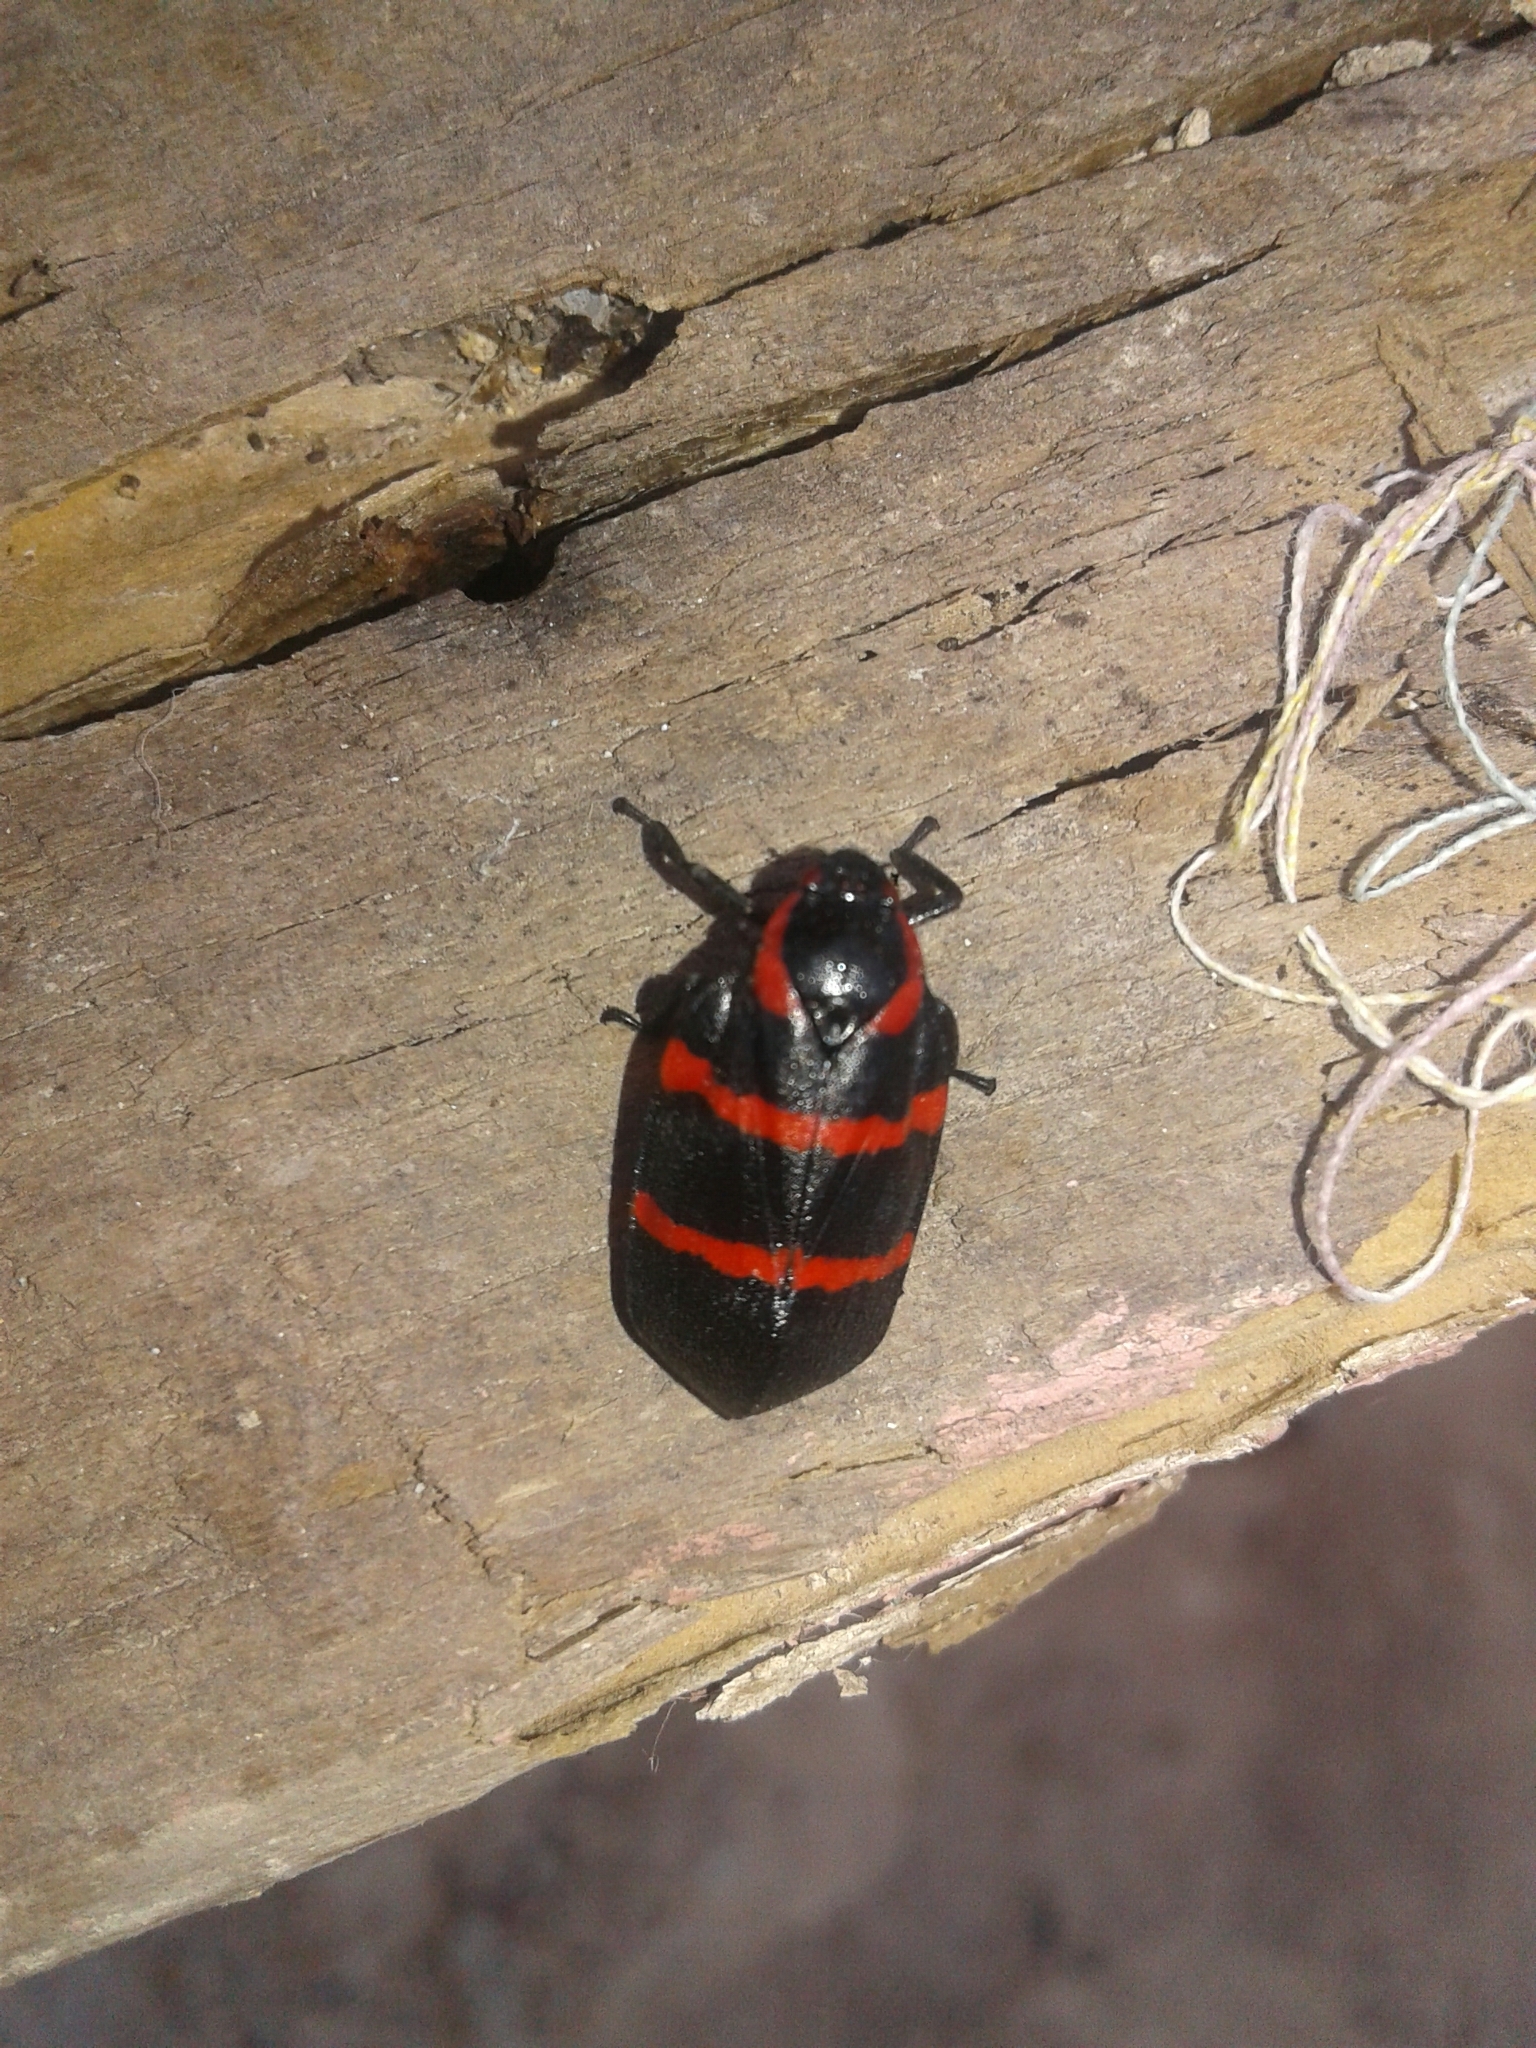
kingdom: Animalia
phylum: Arthropoda
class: Insecta
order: Hemiptera
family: Cercopidae
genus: Huaina
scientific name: Huaina inca
